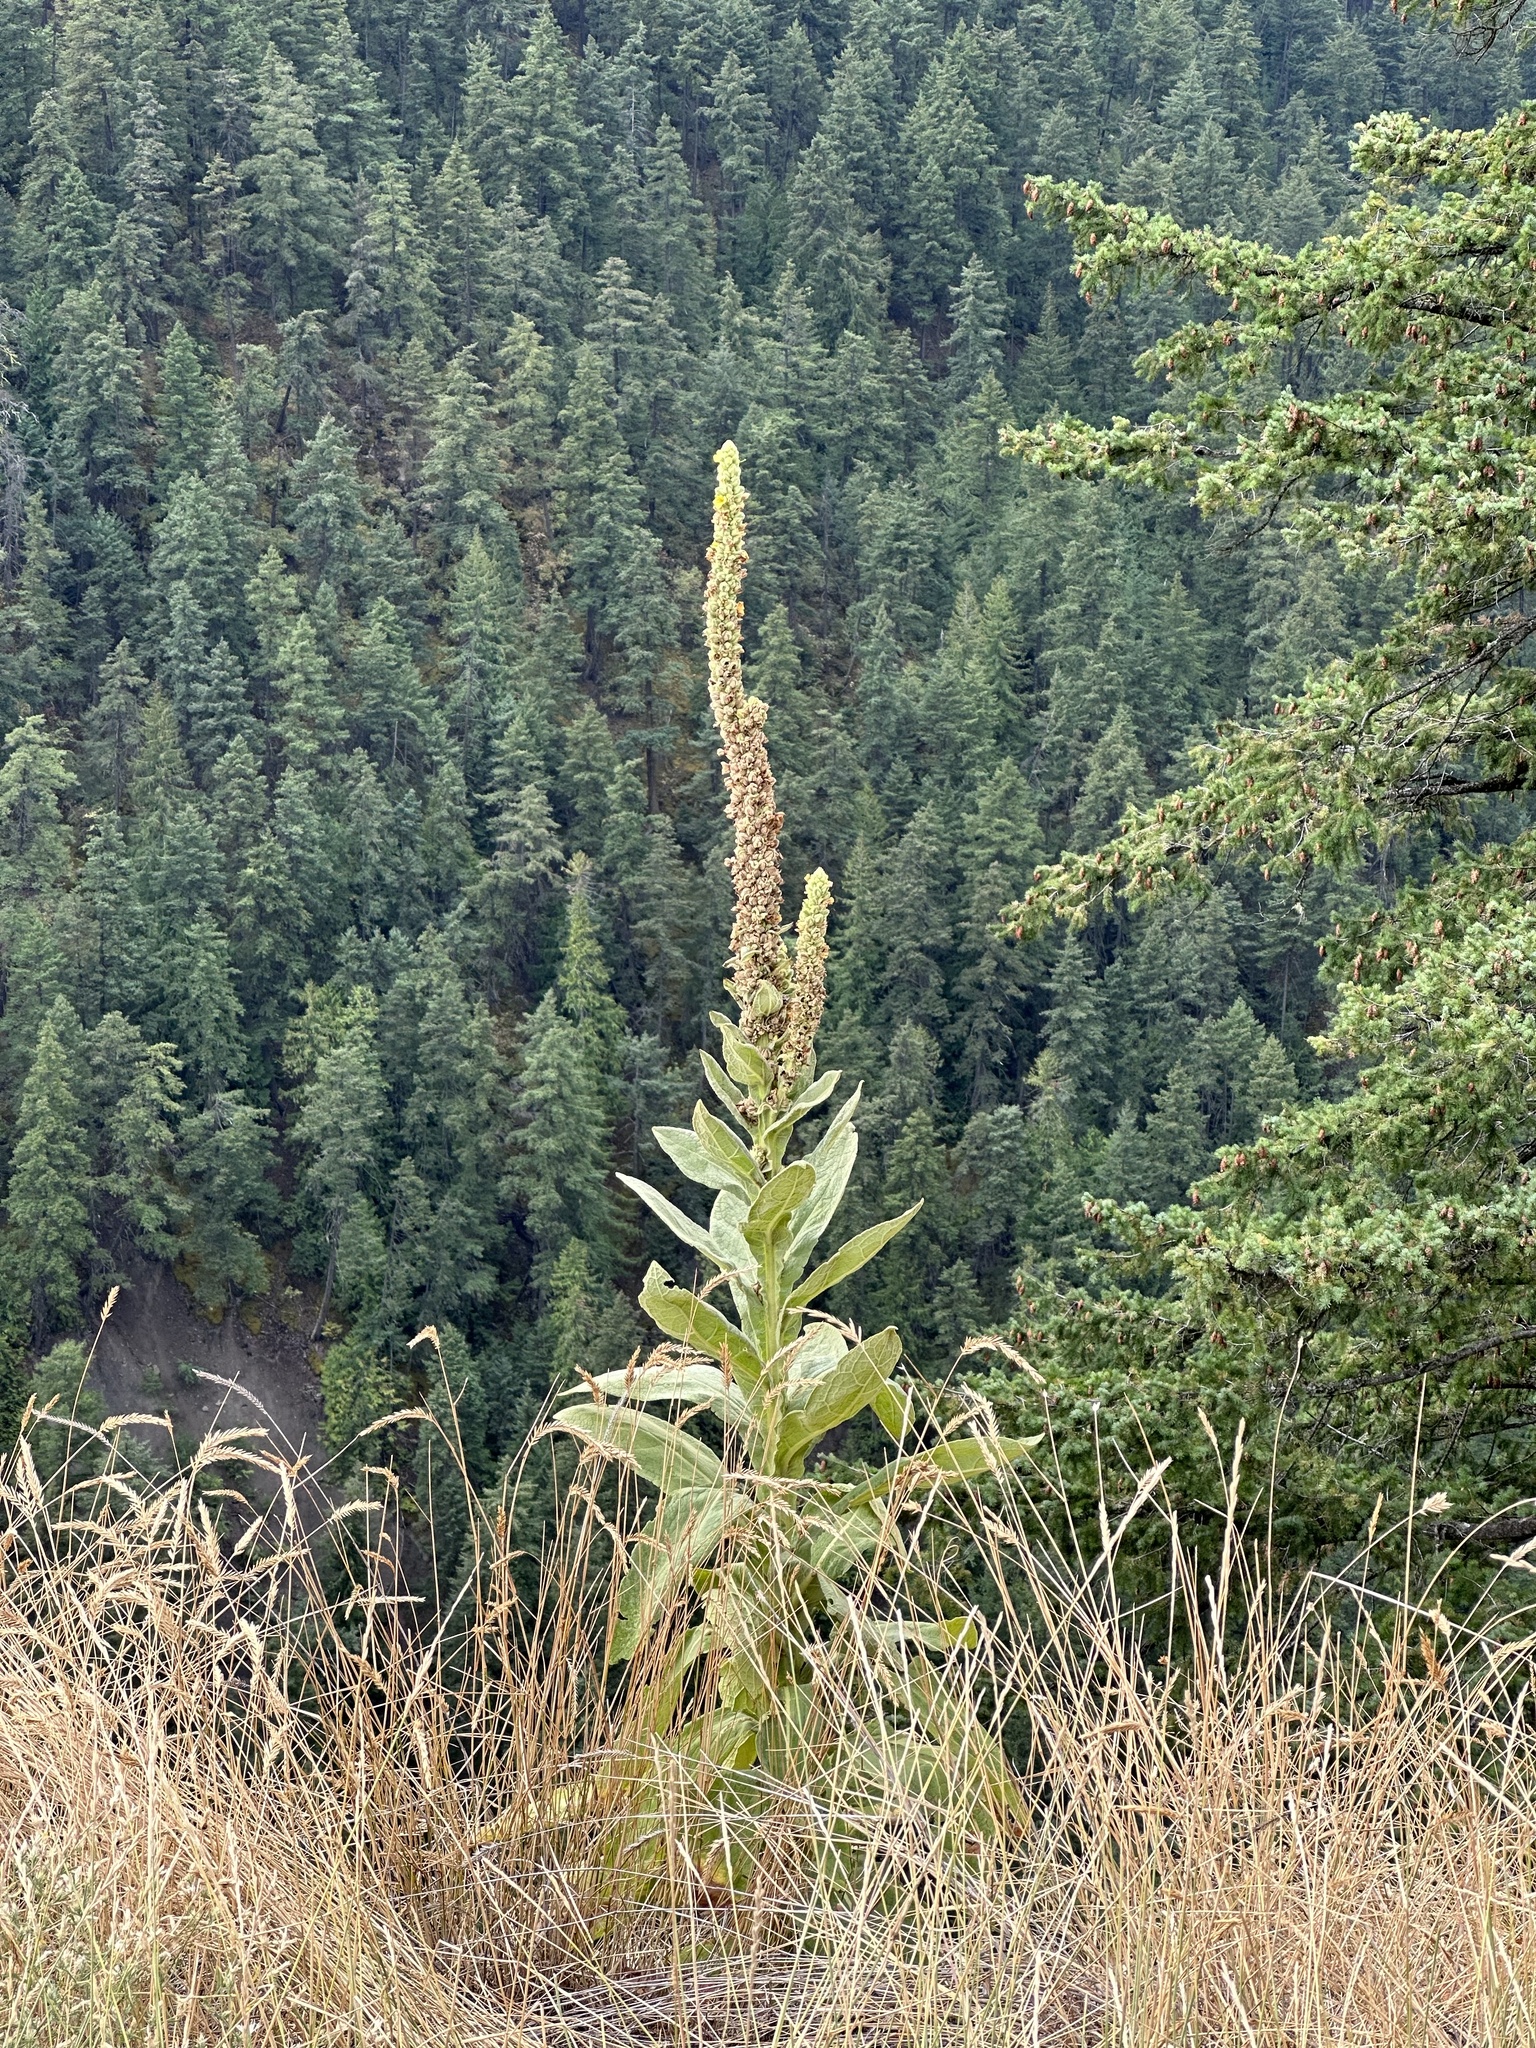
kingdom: Plantae
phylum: Tracheophyta
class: Magnoliopsida
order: Lamiales
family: Scrophulariaceae
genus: Verbascum
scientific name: Verbascum thapsus
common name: Common mullein
